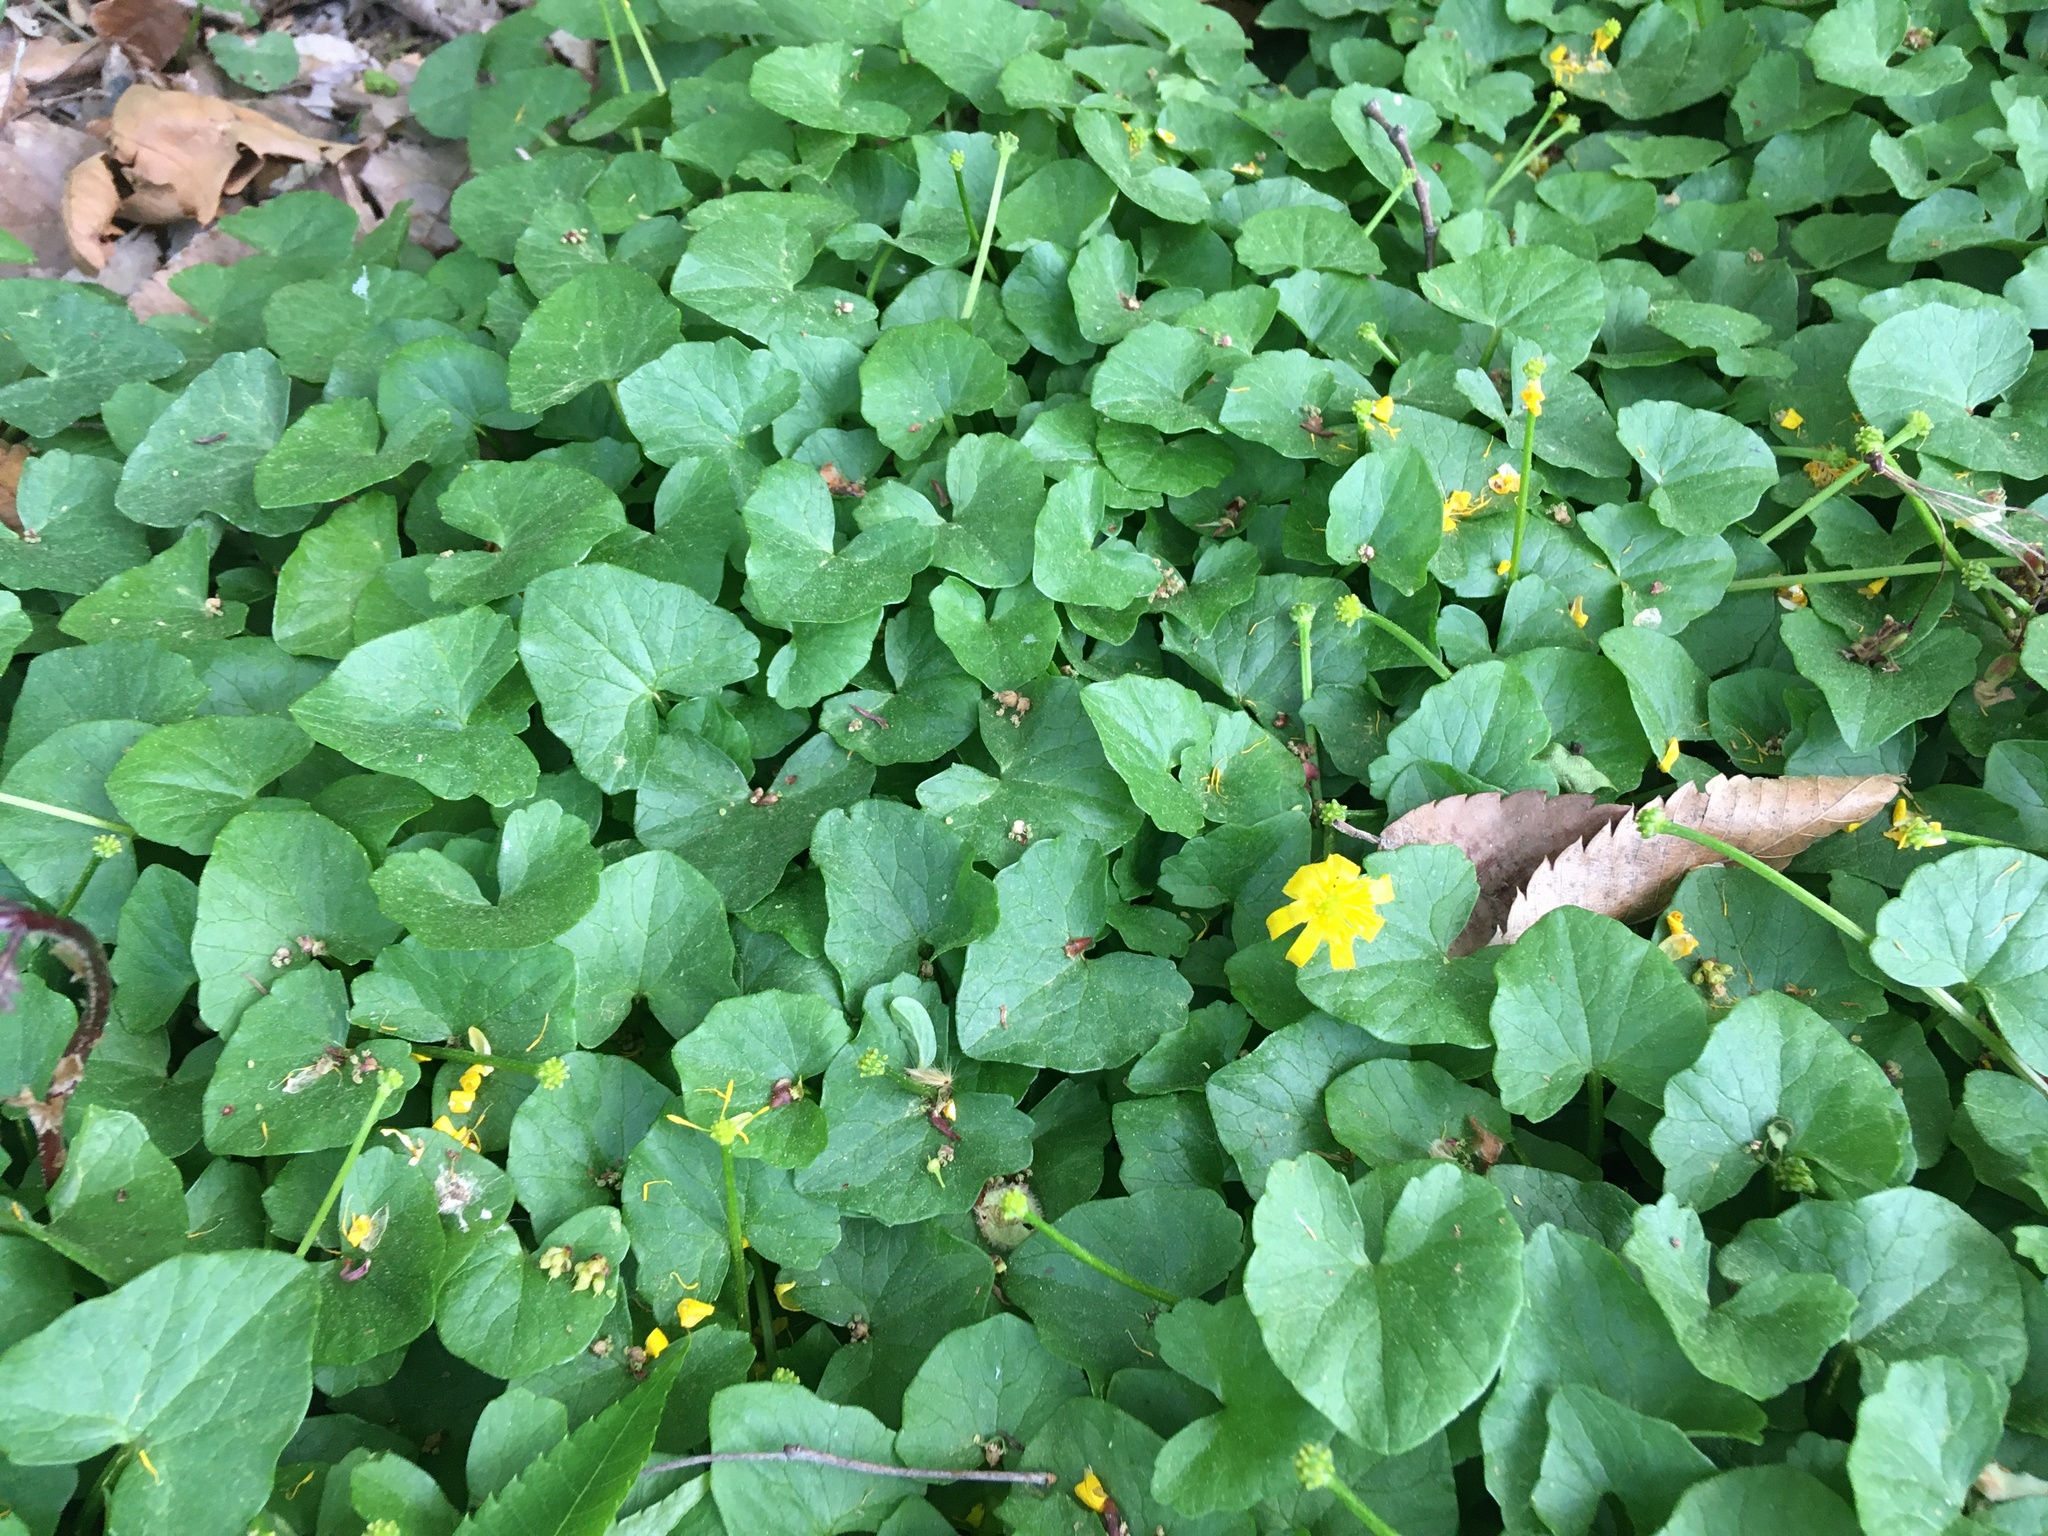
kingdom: Plantae
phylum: Tracheophyta
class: Magnoliopsida
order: Ranunculales
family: Ranunculaceae
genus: Ficaria
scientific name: Ficaria verna
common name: Lesser celandine
